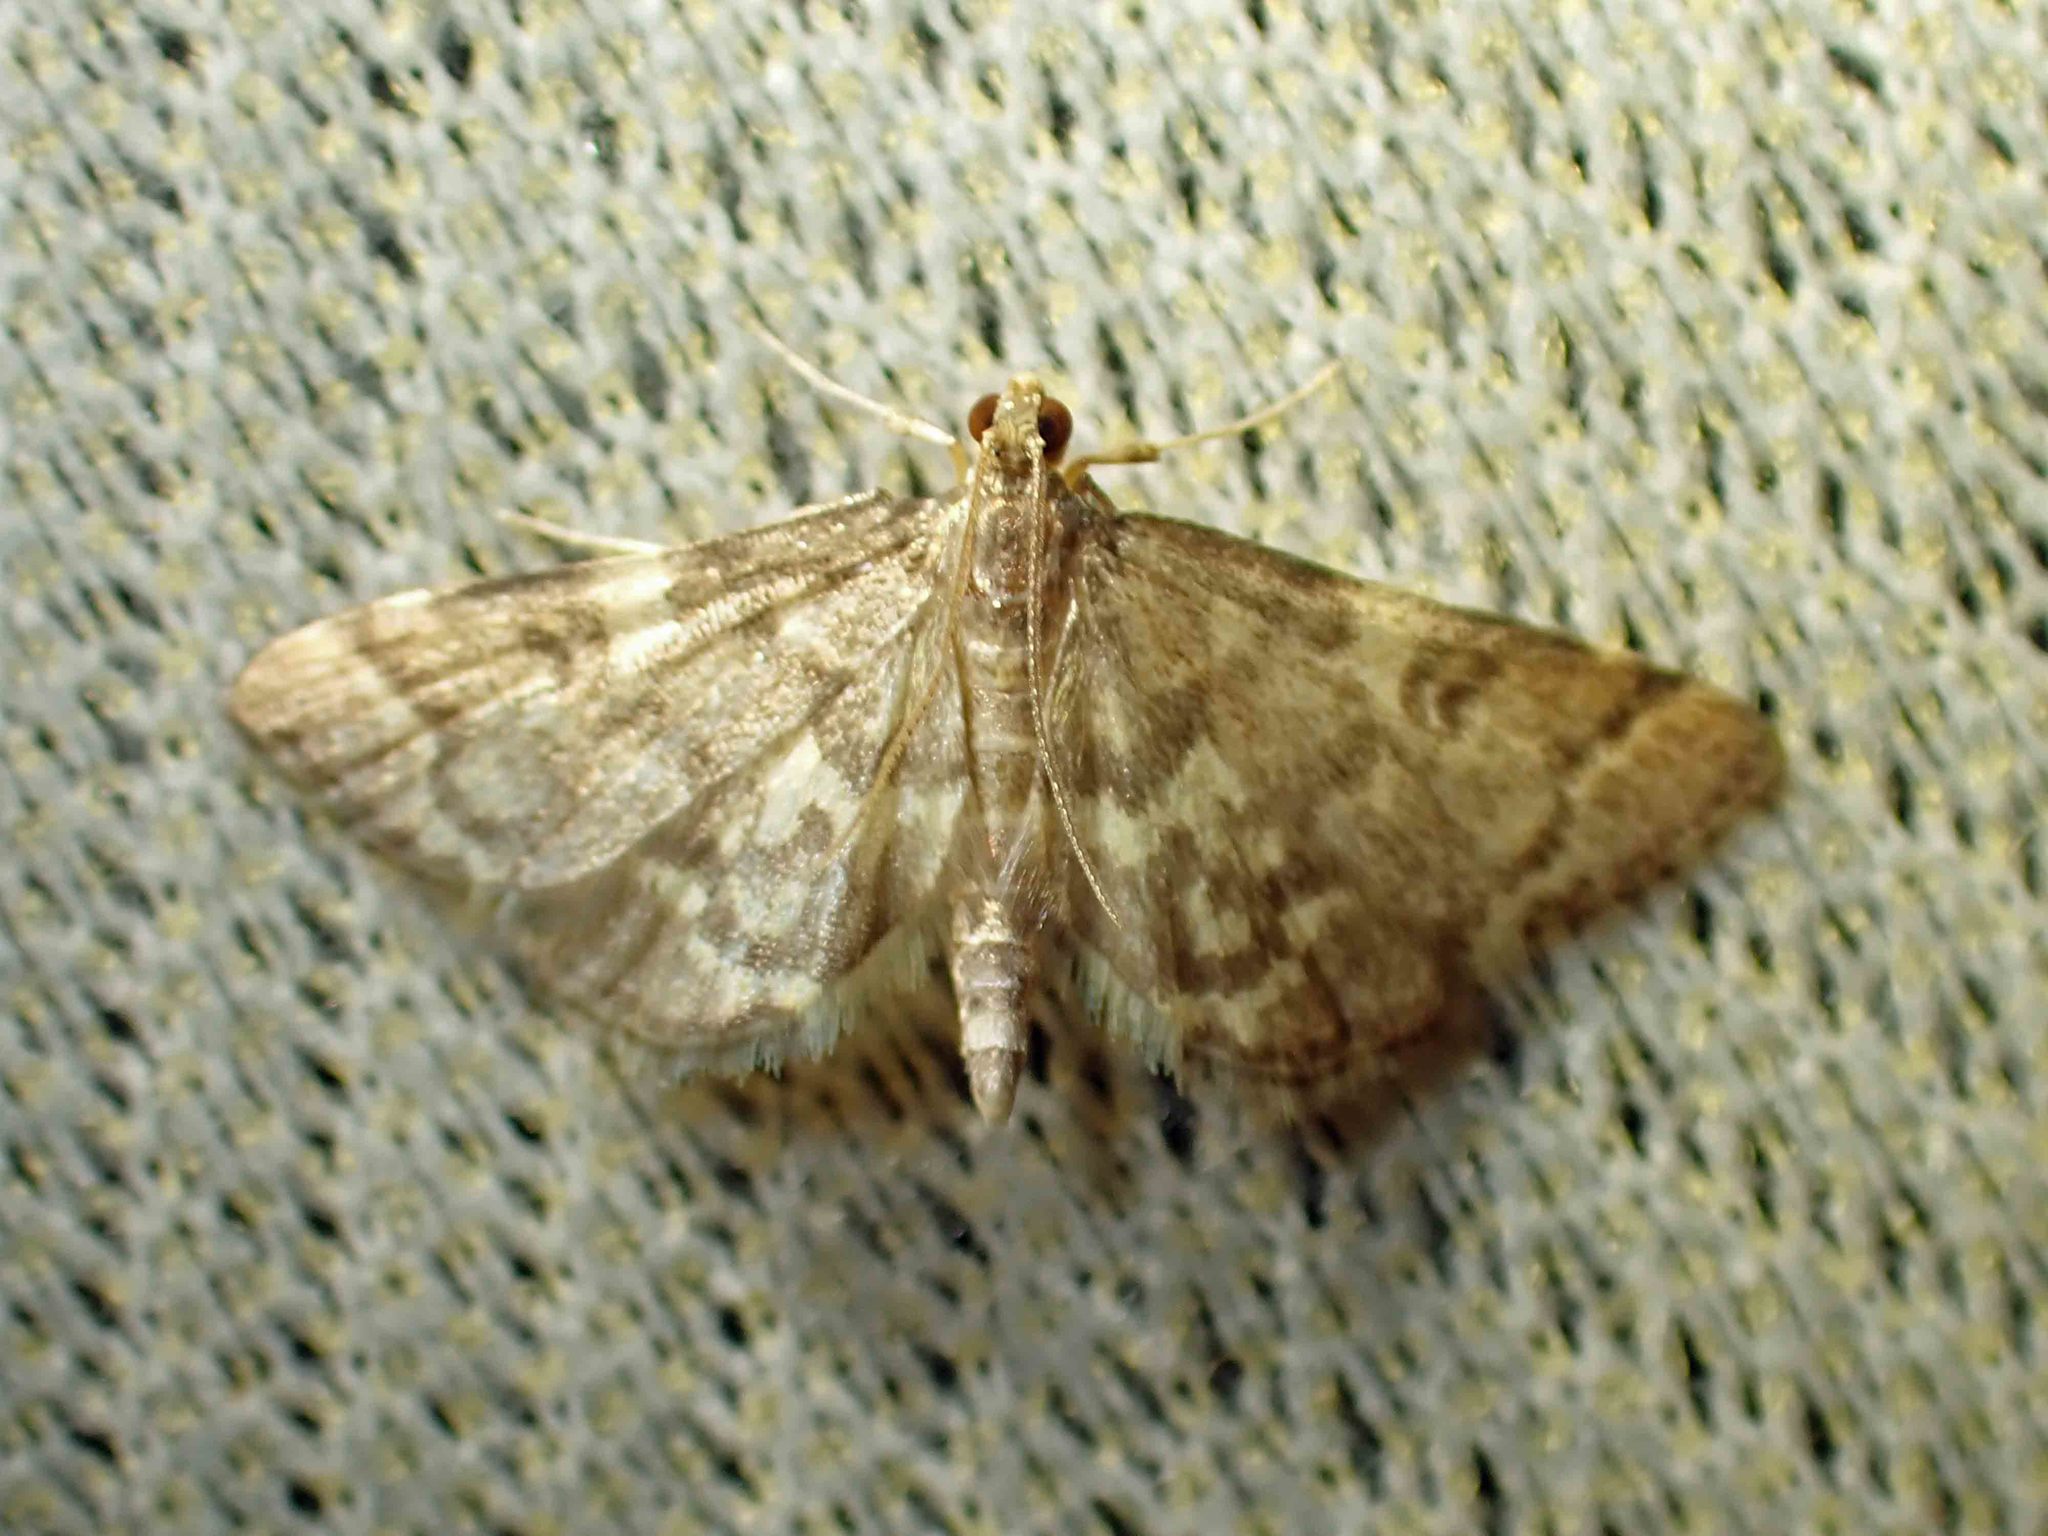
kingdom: Animalia
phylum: Arthropoda
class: Insecta
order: Lepidoptera
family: Crambidae
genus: Anageshna
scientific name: Anageshna primordialis
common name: Yellow-spotted webworm moth
